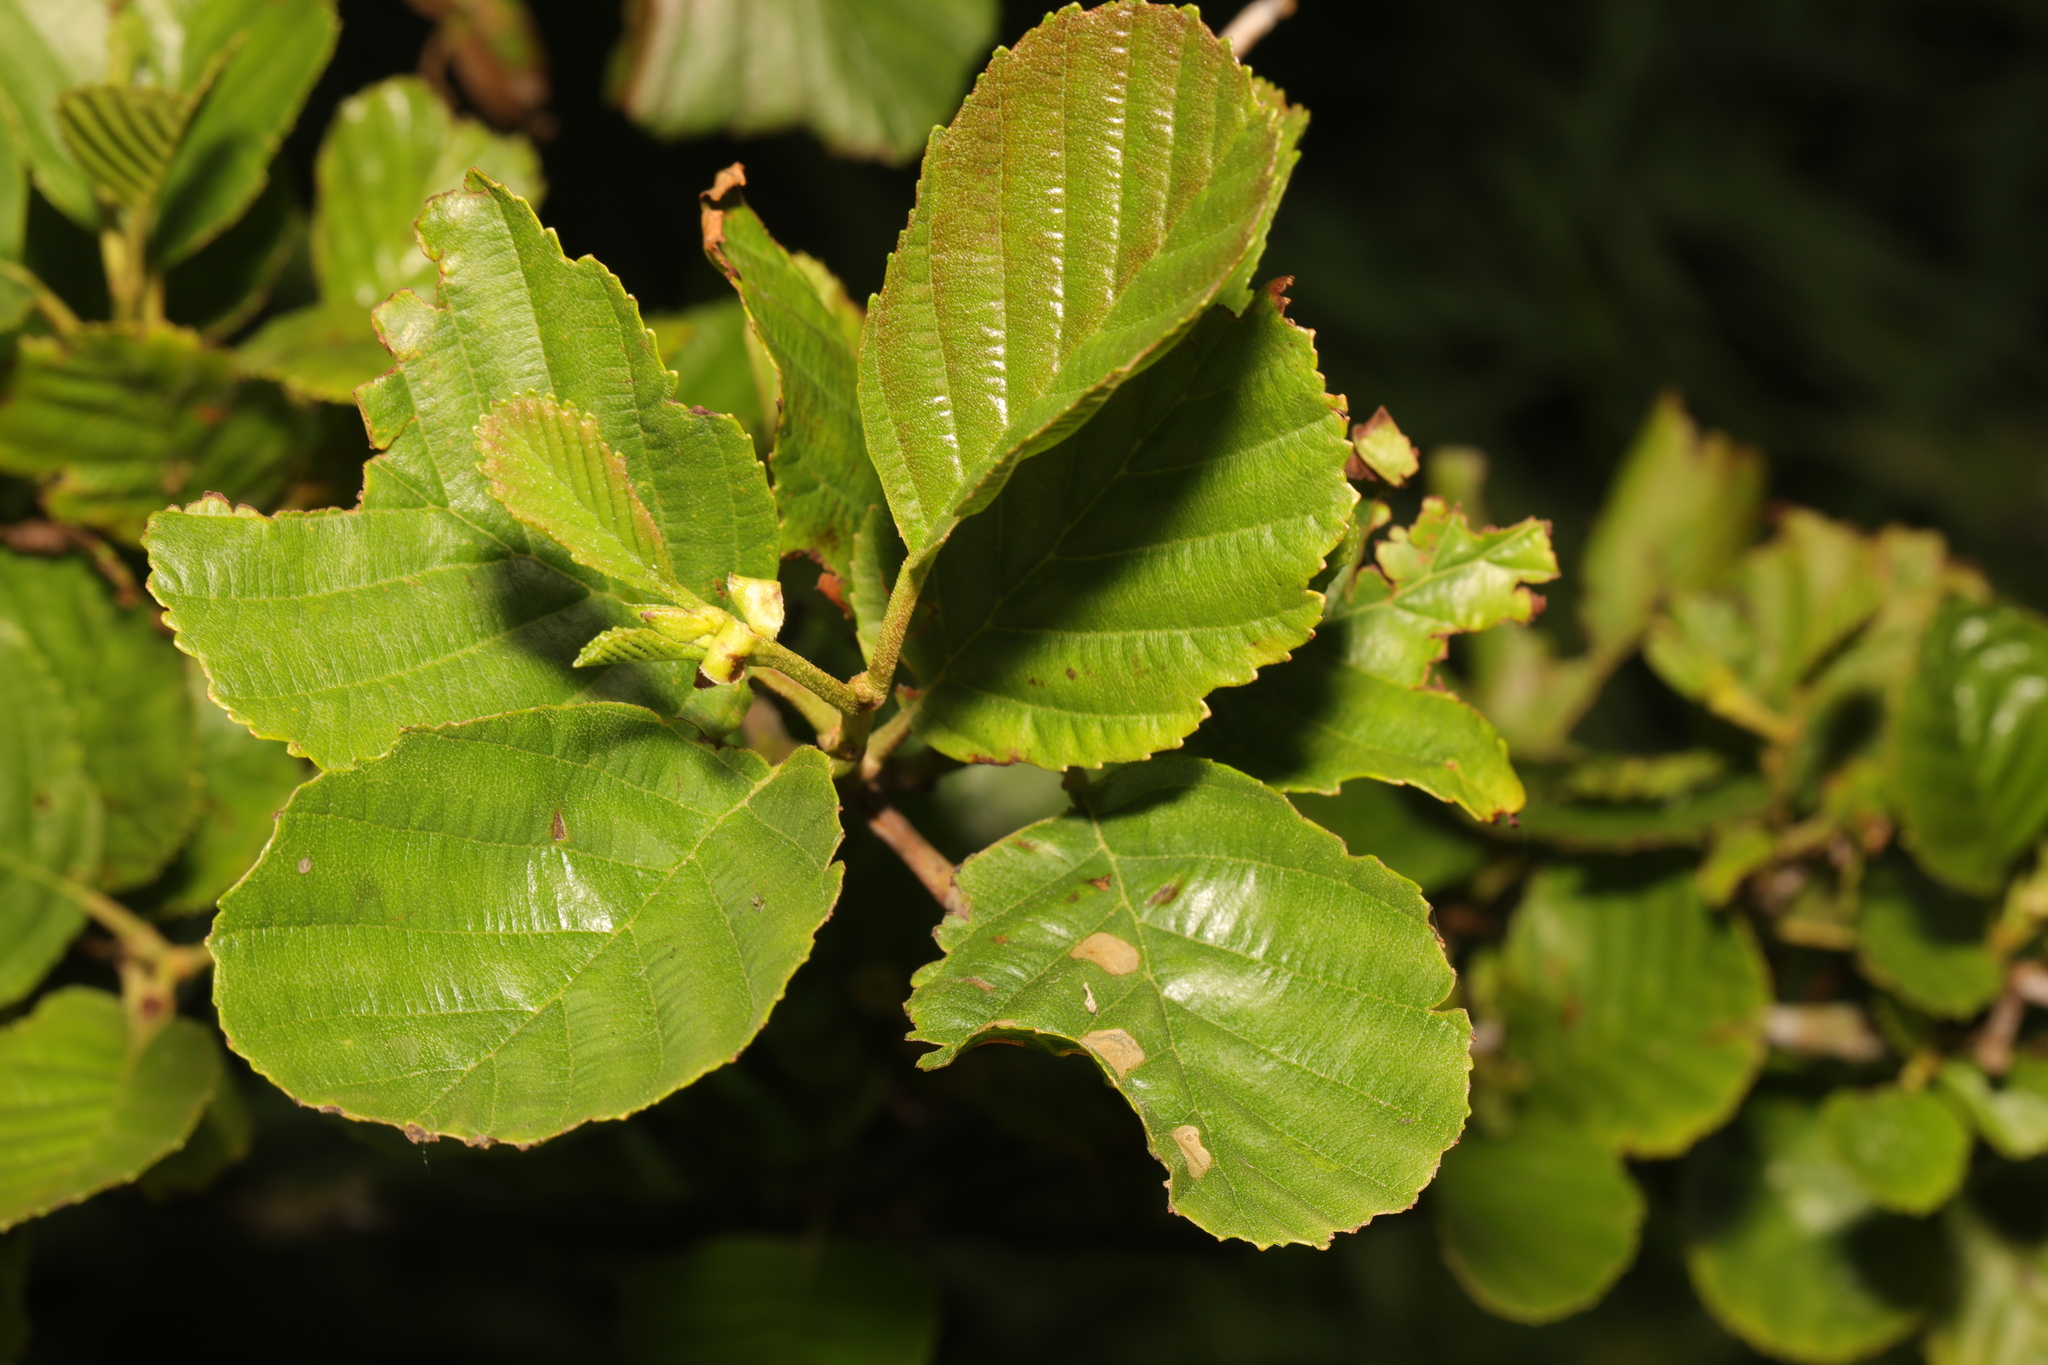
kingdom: Plantae
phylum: Tracheophyta
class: Magnoliopsida
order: Fagales
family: Betulaceae
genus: Alnus
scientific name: Alnus glutinosa
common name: Black alder
